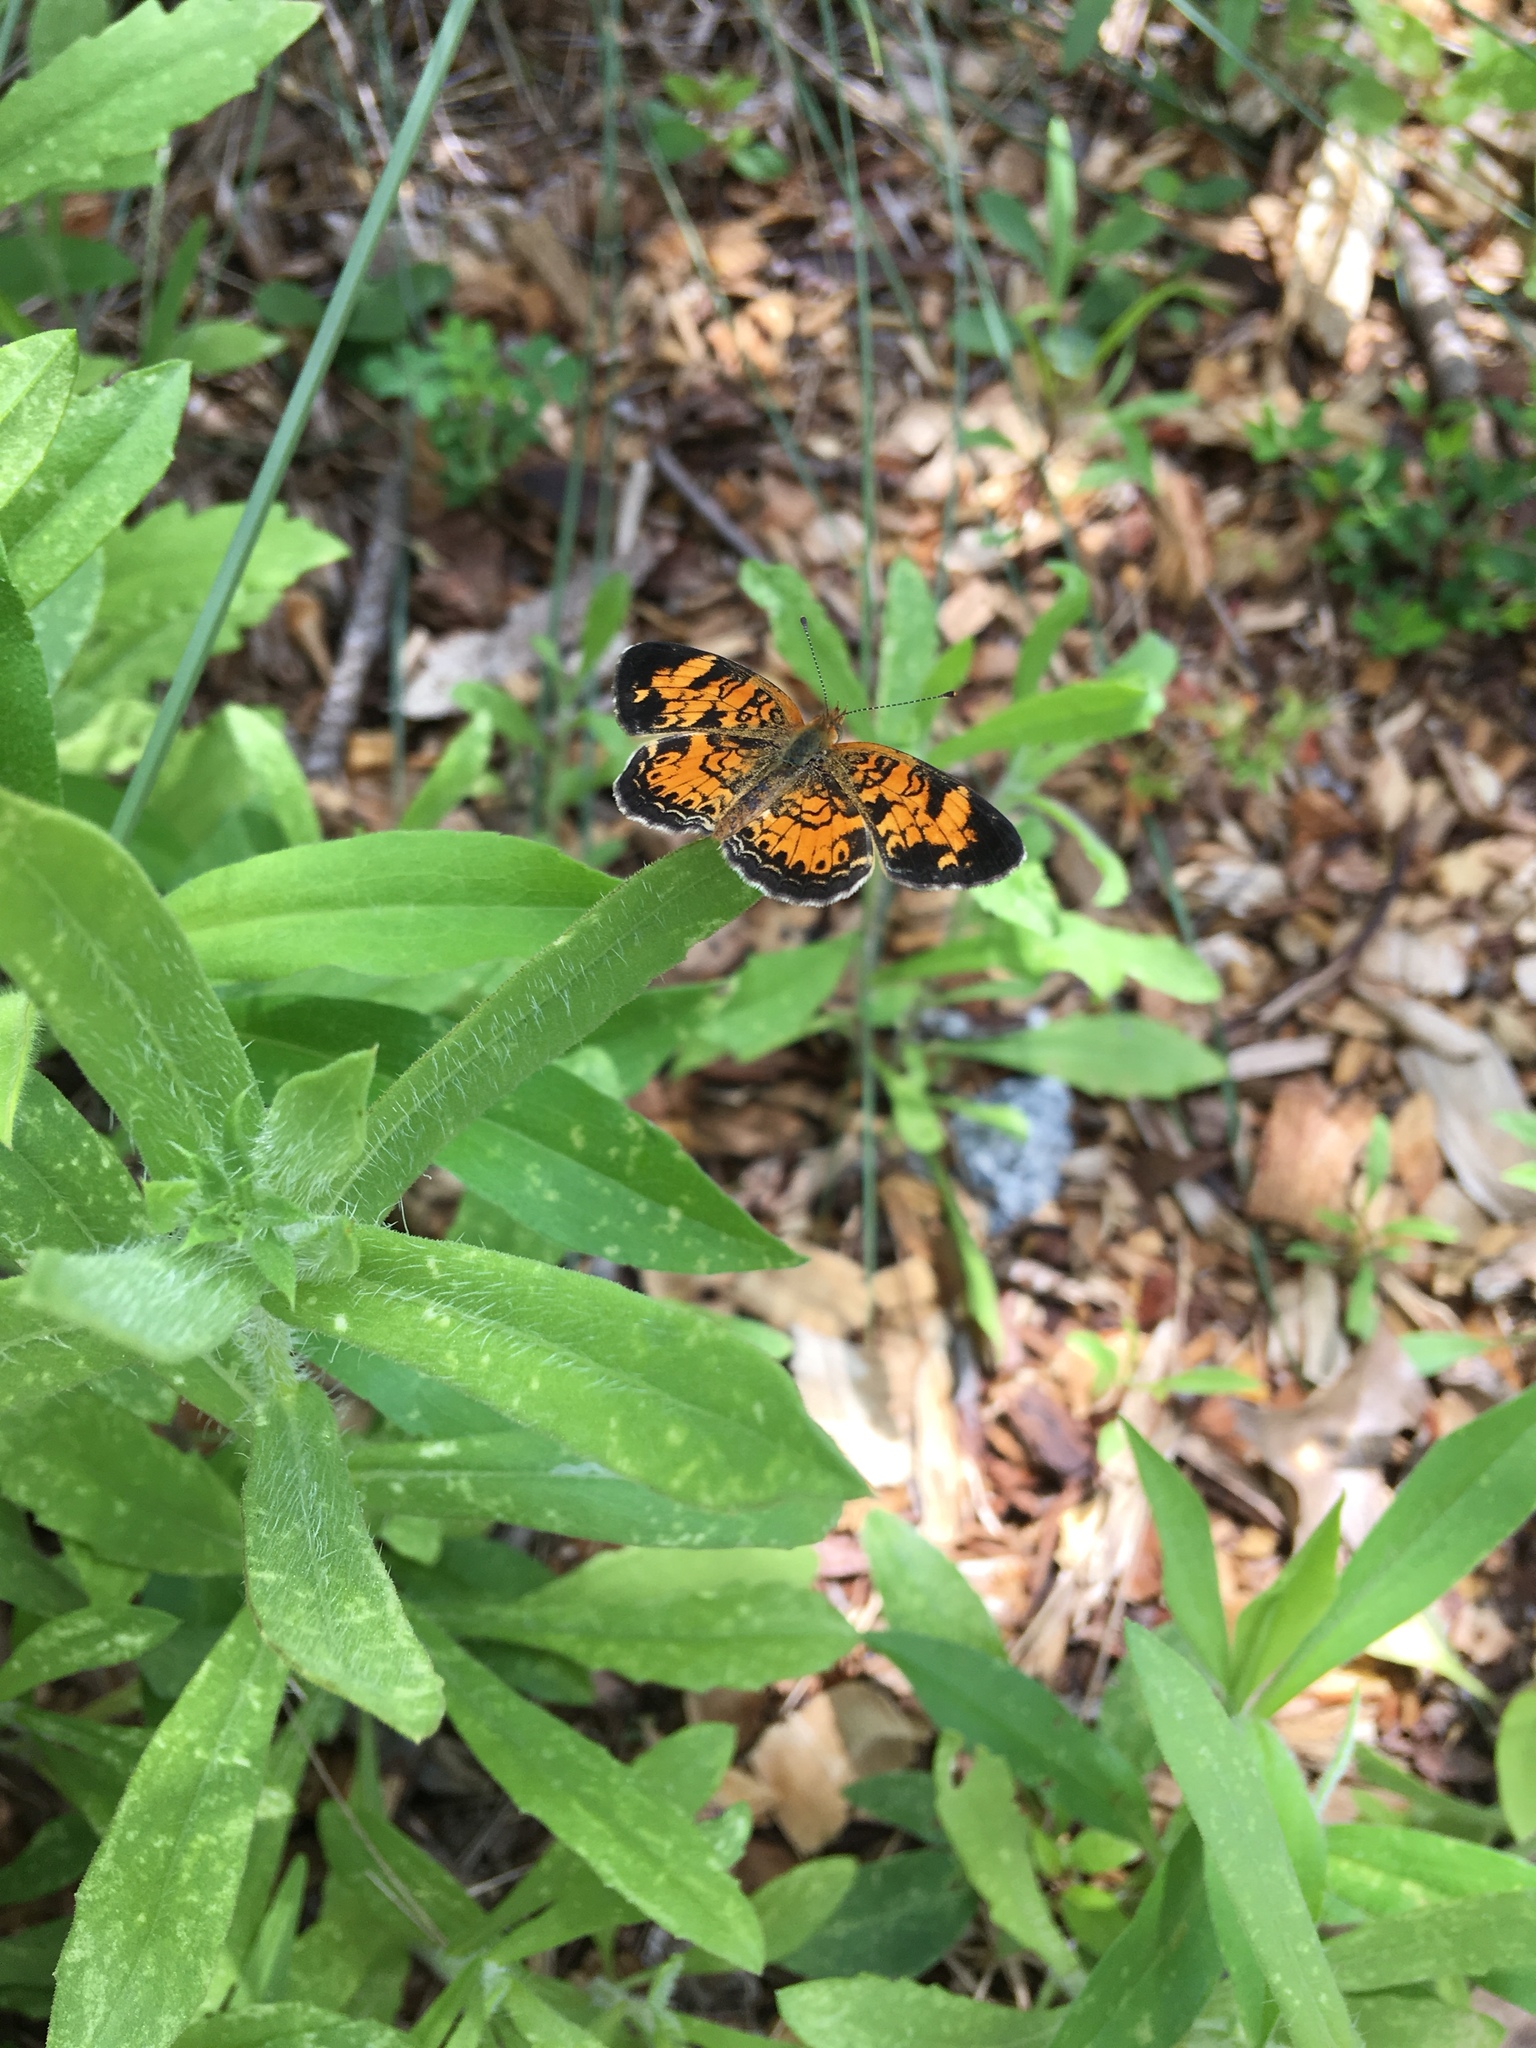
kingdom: Animalia
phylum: Arthropoda
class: Insecta
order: Lepidoptera
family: Nymphalidae
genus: Phyciodes
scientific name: Phyciodes tharos
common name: Pearl crescent
